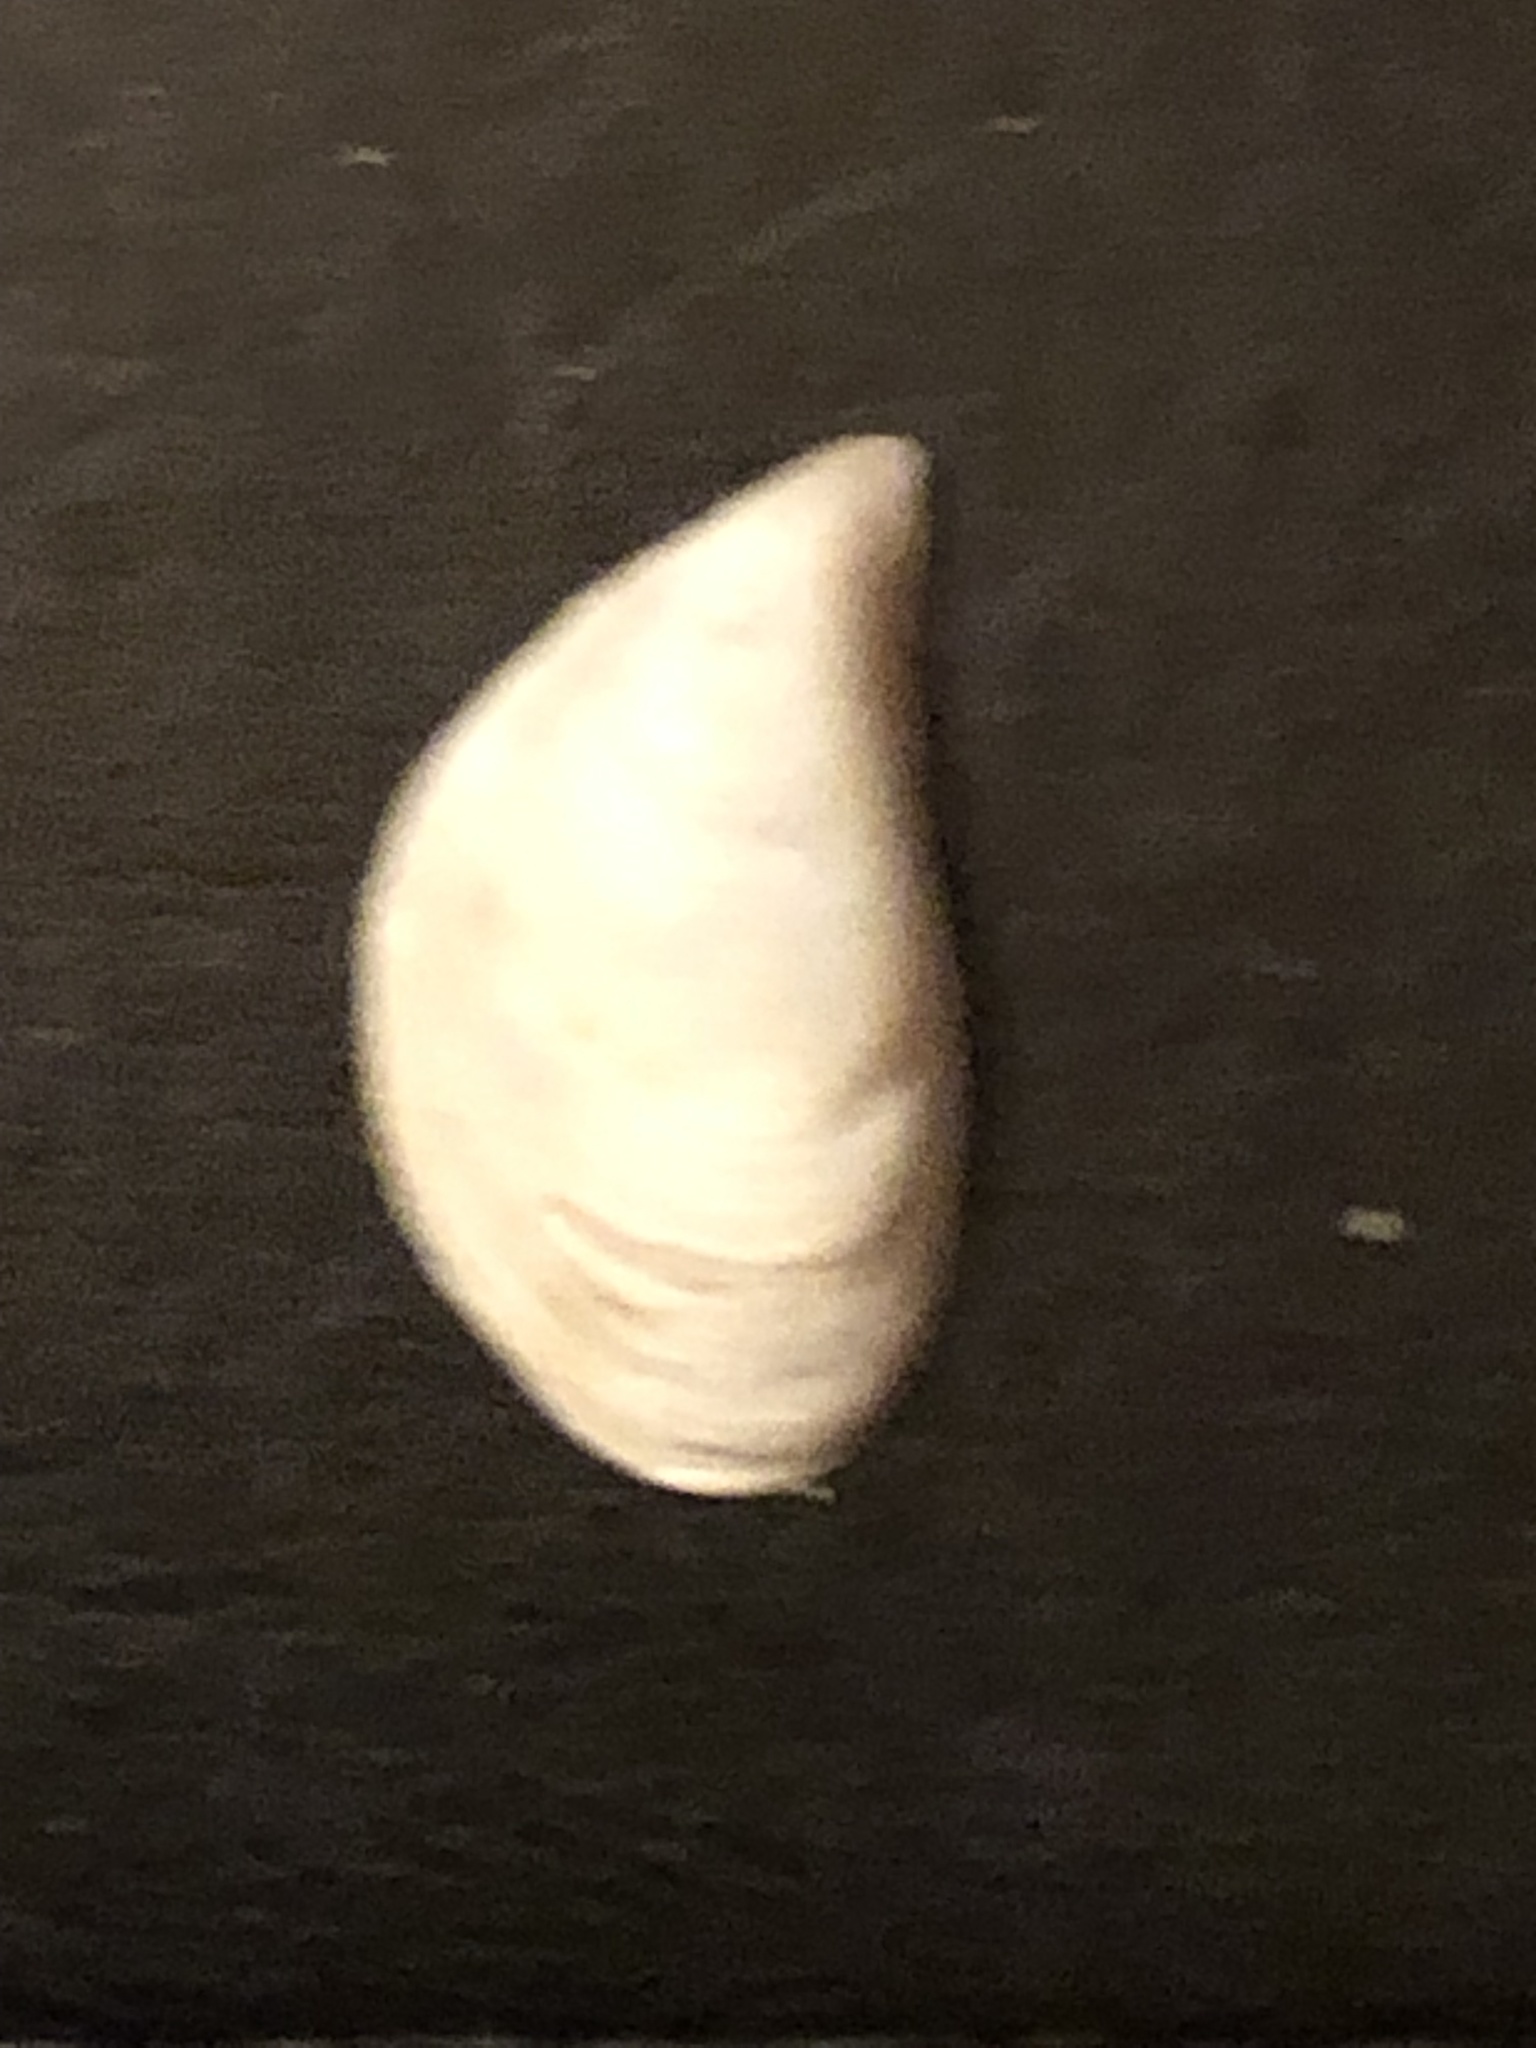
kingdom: Animalia
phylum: Mollusca
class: Bivalvia
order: Myida
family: Dreissenidae
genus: Dreissena
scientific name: Dreissena bugensis
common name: Quagga mussel
